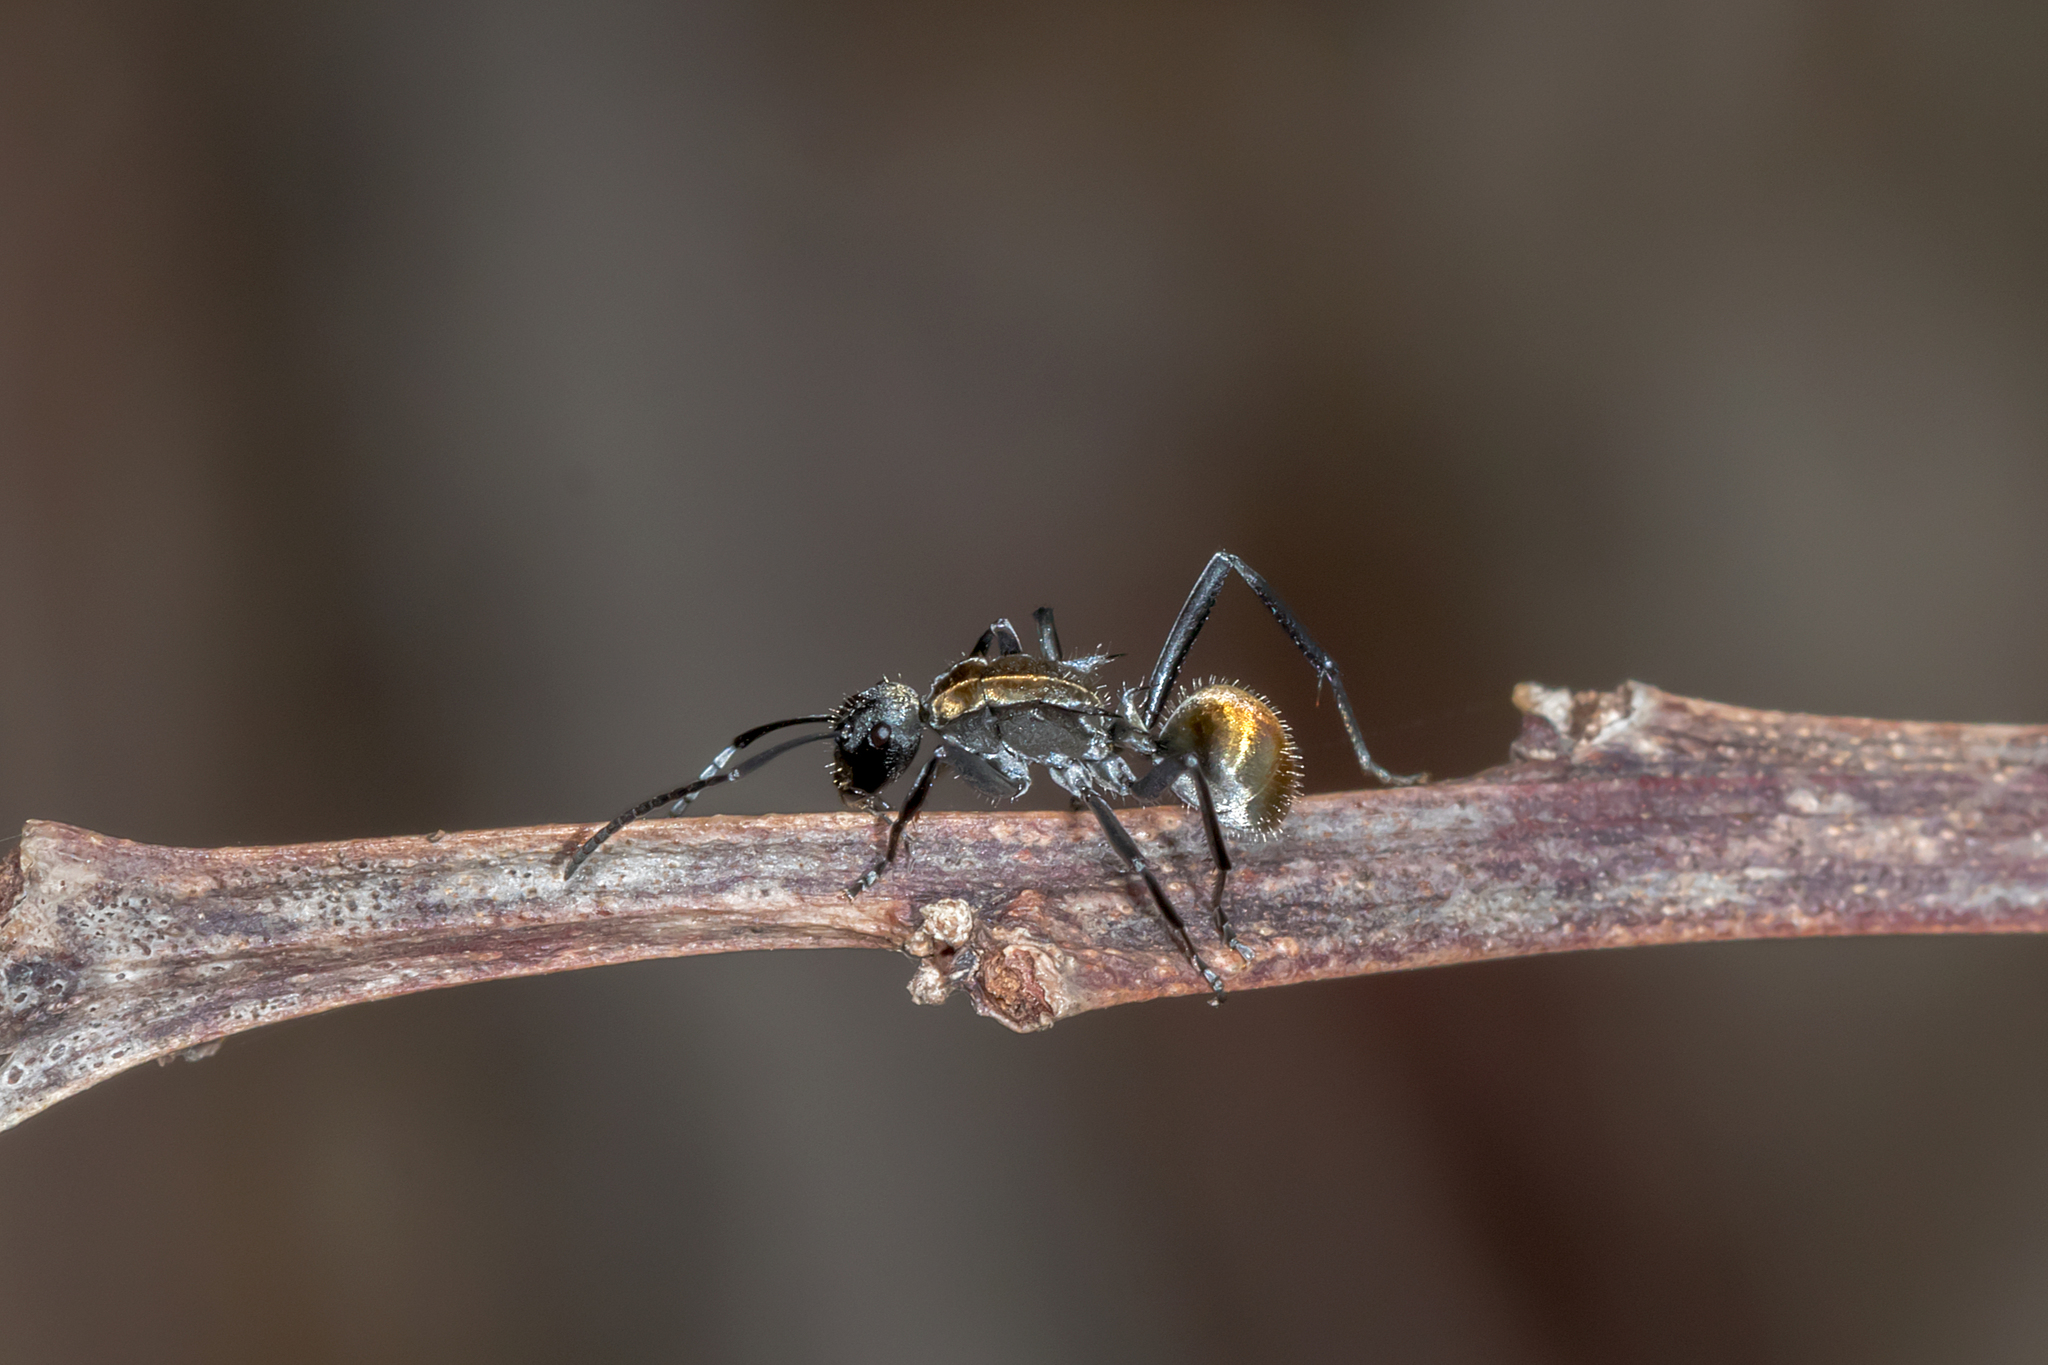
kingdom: Animalia
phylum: Arthropoda
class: Insecta
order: Hymenoptera
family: Formicidae
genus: Polyrhachis
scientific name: Polyrhachis ammon
